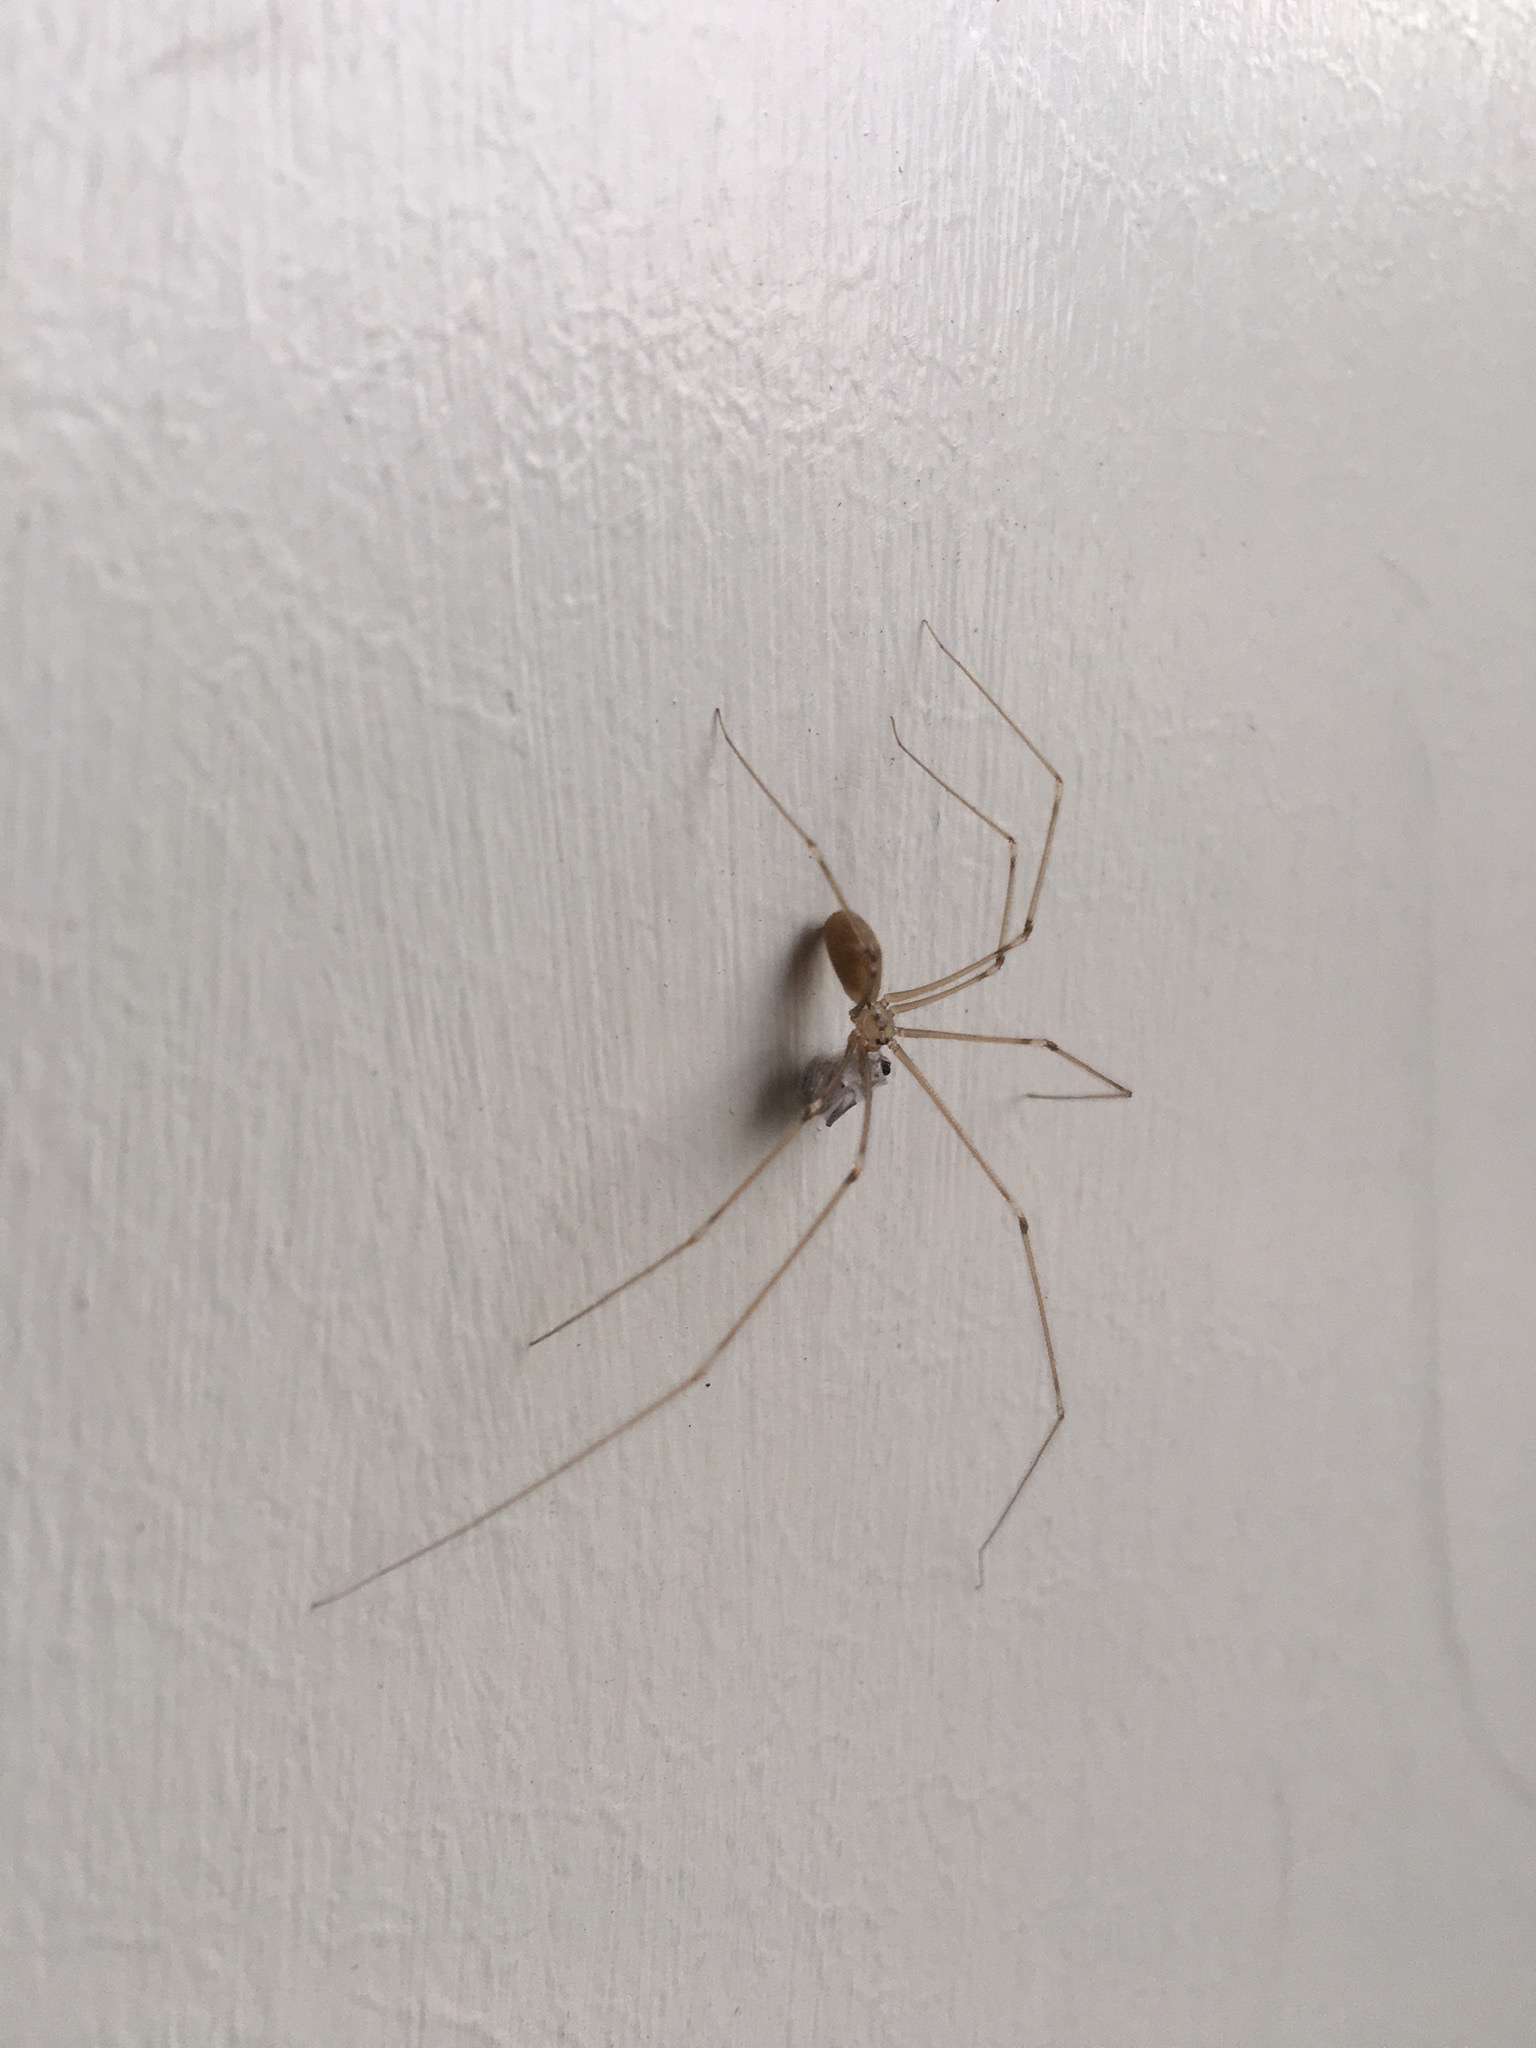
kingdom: Animalia
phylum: Arthropoda
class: Arachnida
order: Araneae
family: Pholcidae
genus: Pholcus
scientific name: Pholcus phalangioides
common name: Longbodied cellar spider
